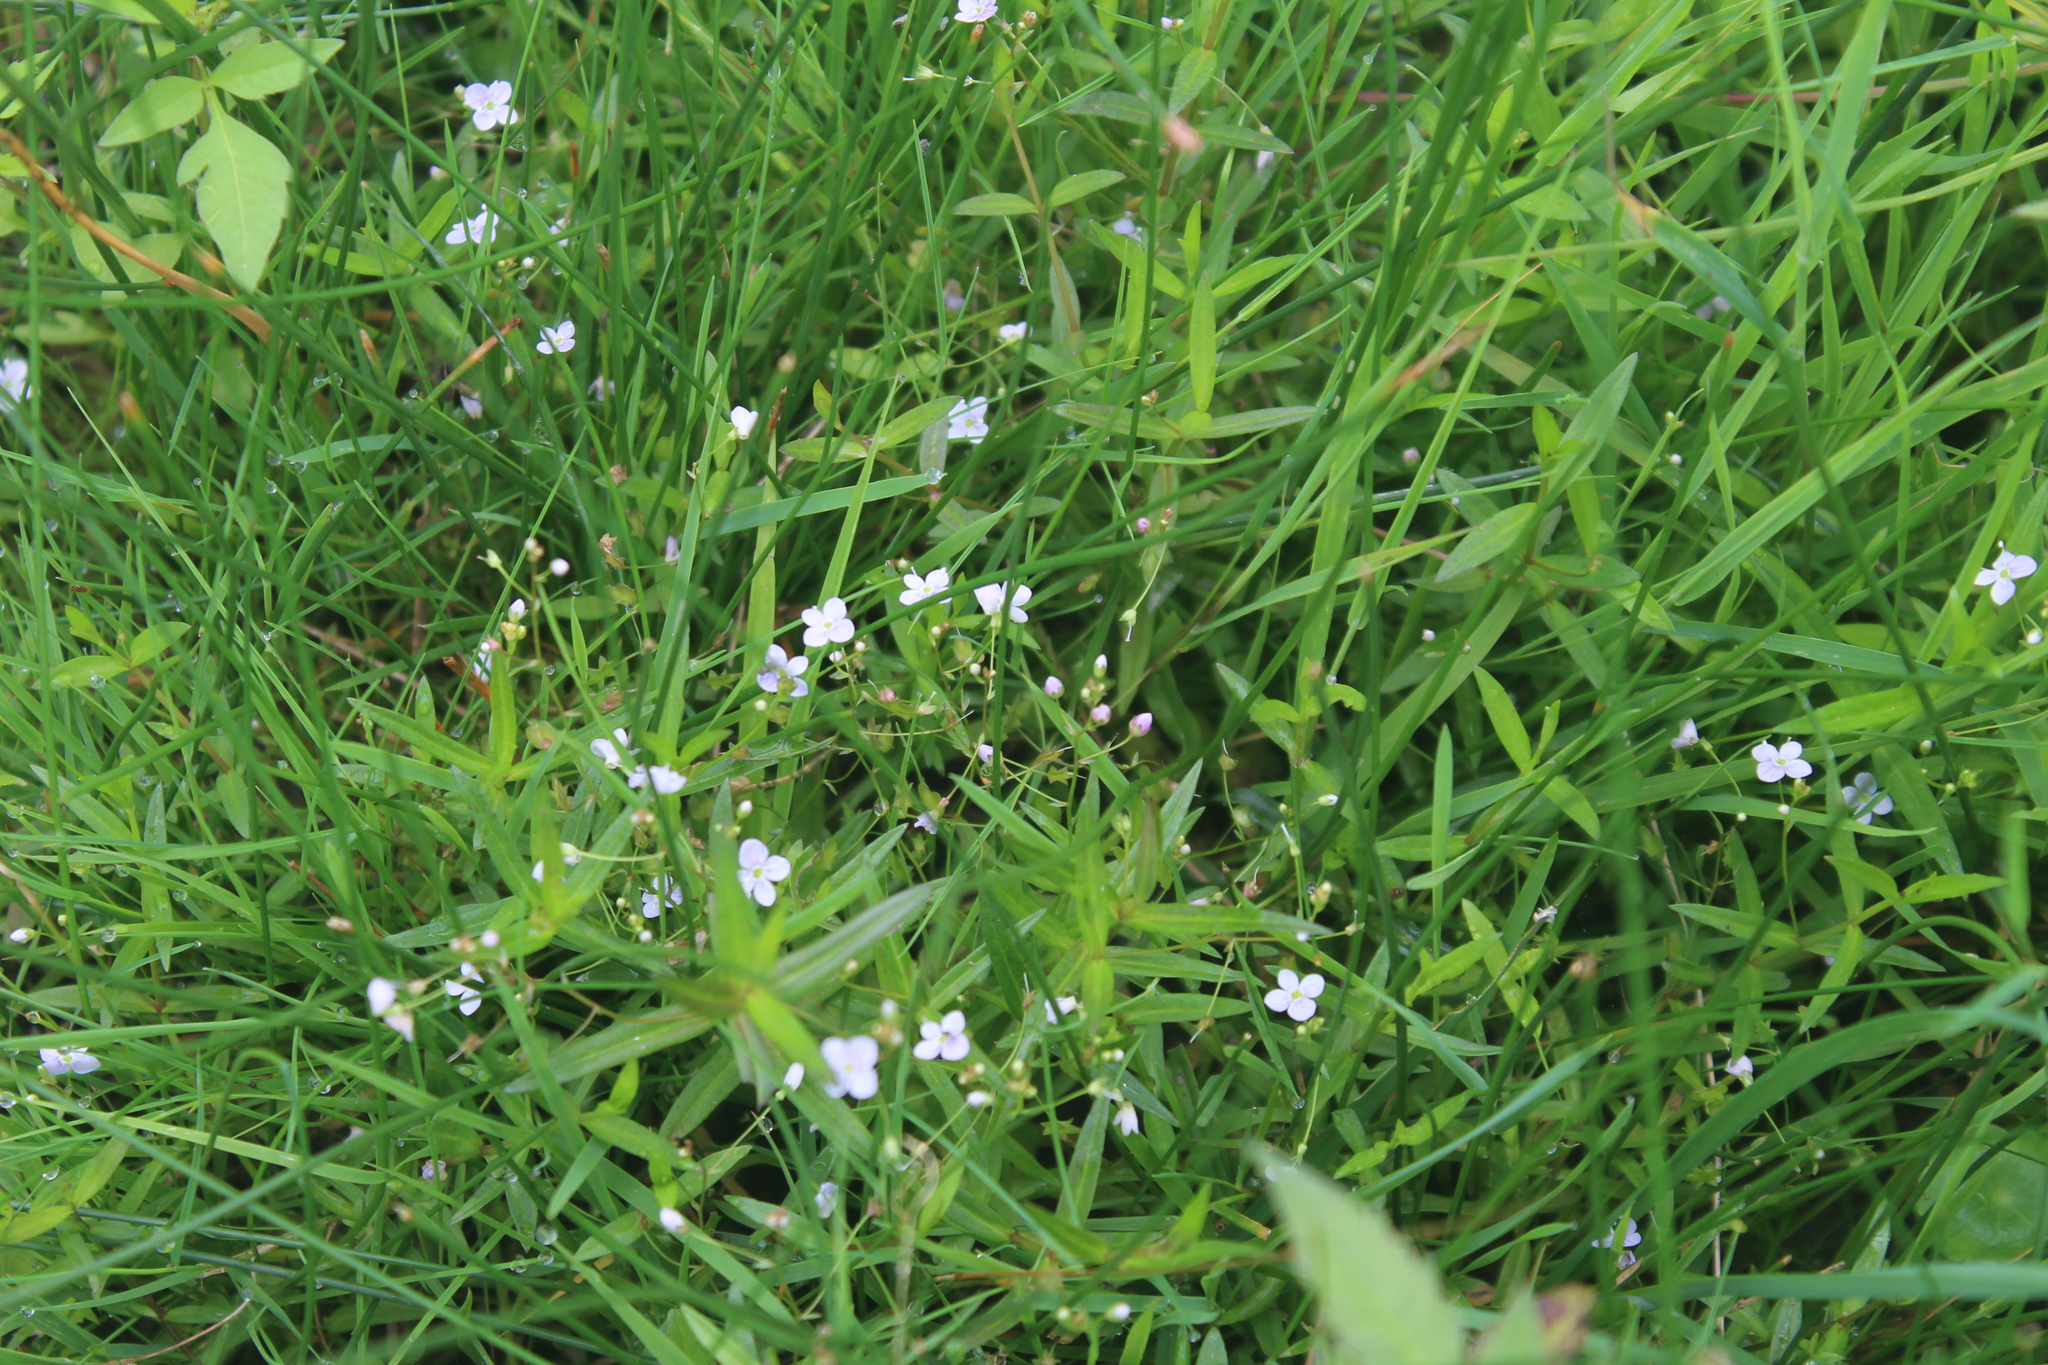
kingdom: Plantae
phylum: Tracheophyta
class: Magnoliopsida
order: Lamiales
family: Plantaginaceae
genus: Veronica
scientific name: Veronica scutellata
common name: Marsh speedwell
